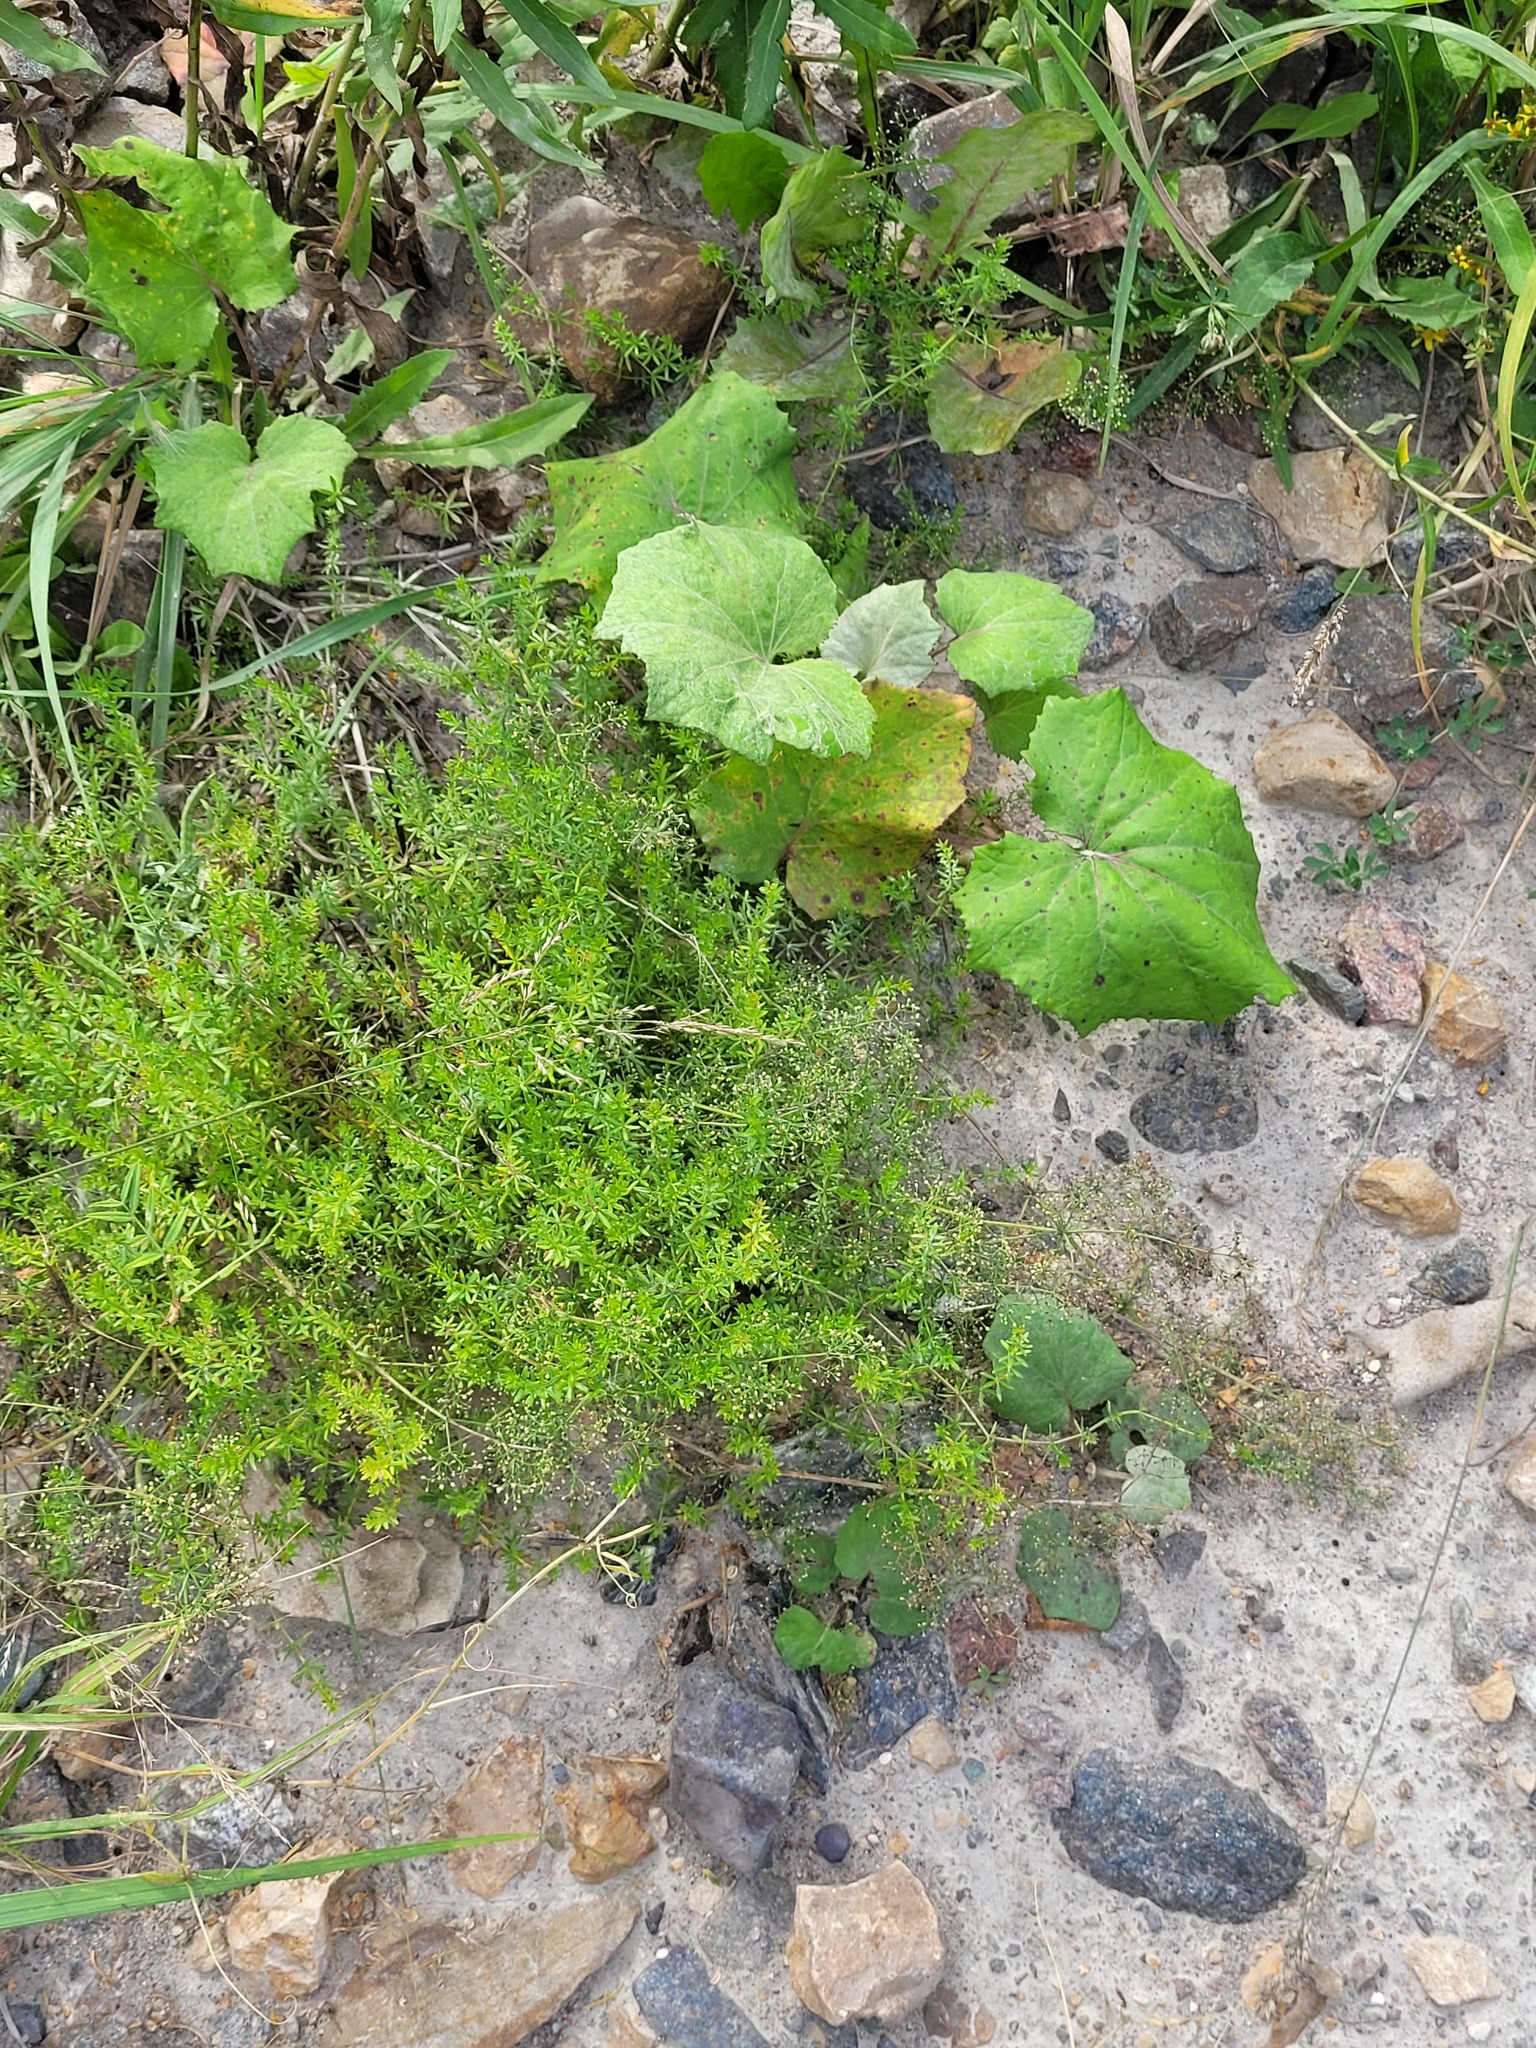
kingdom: Plantae
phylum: Tracheophyta
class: Magnoliopsida
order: Gentianales
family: Rubiaceae
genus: Galium
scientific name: Galium mollugo
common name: Hedge bedstraw
